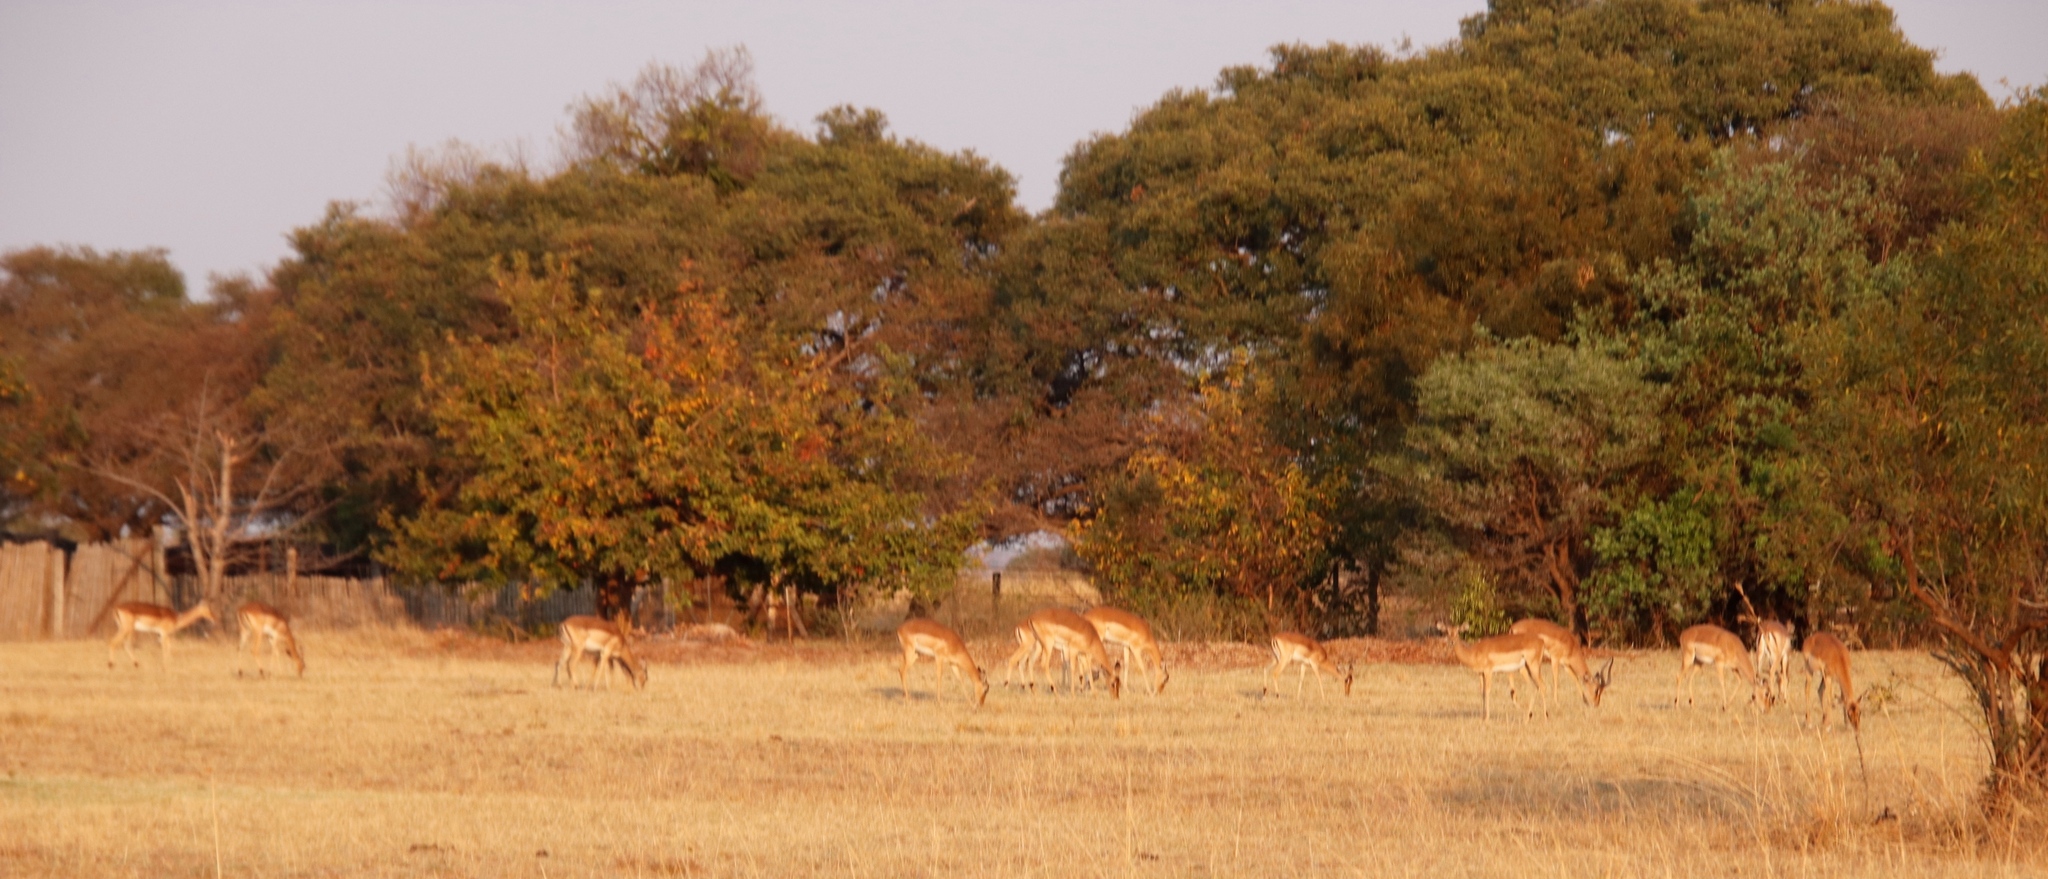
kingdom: Animalia
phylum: Chordata
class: Mammalia
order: Artiodactyla
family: Bovidae
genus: Aepyceros
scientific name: Aepyceros melampus
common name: Impala
